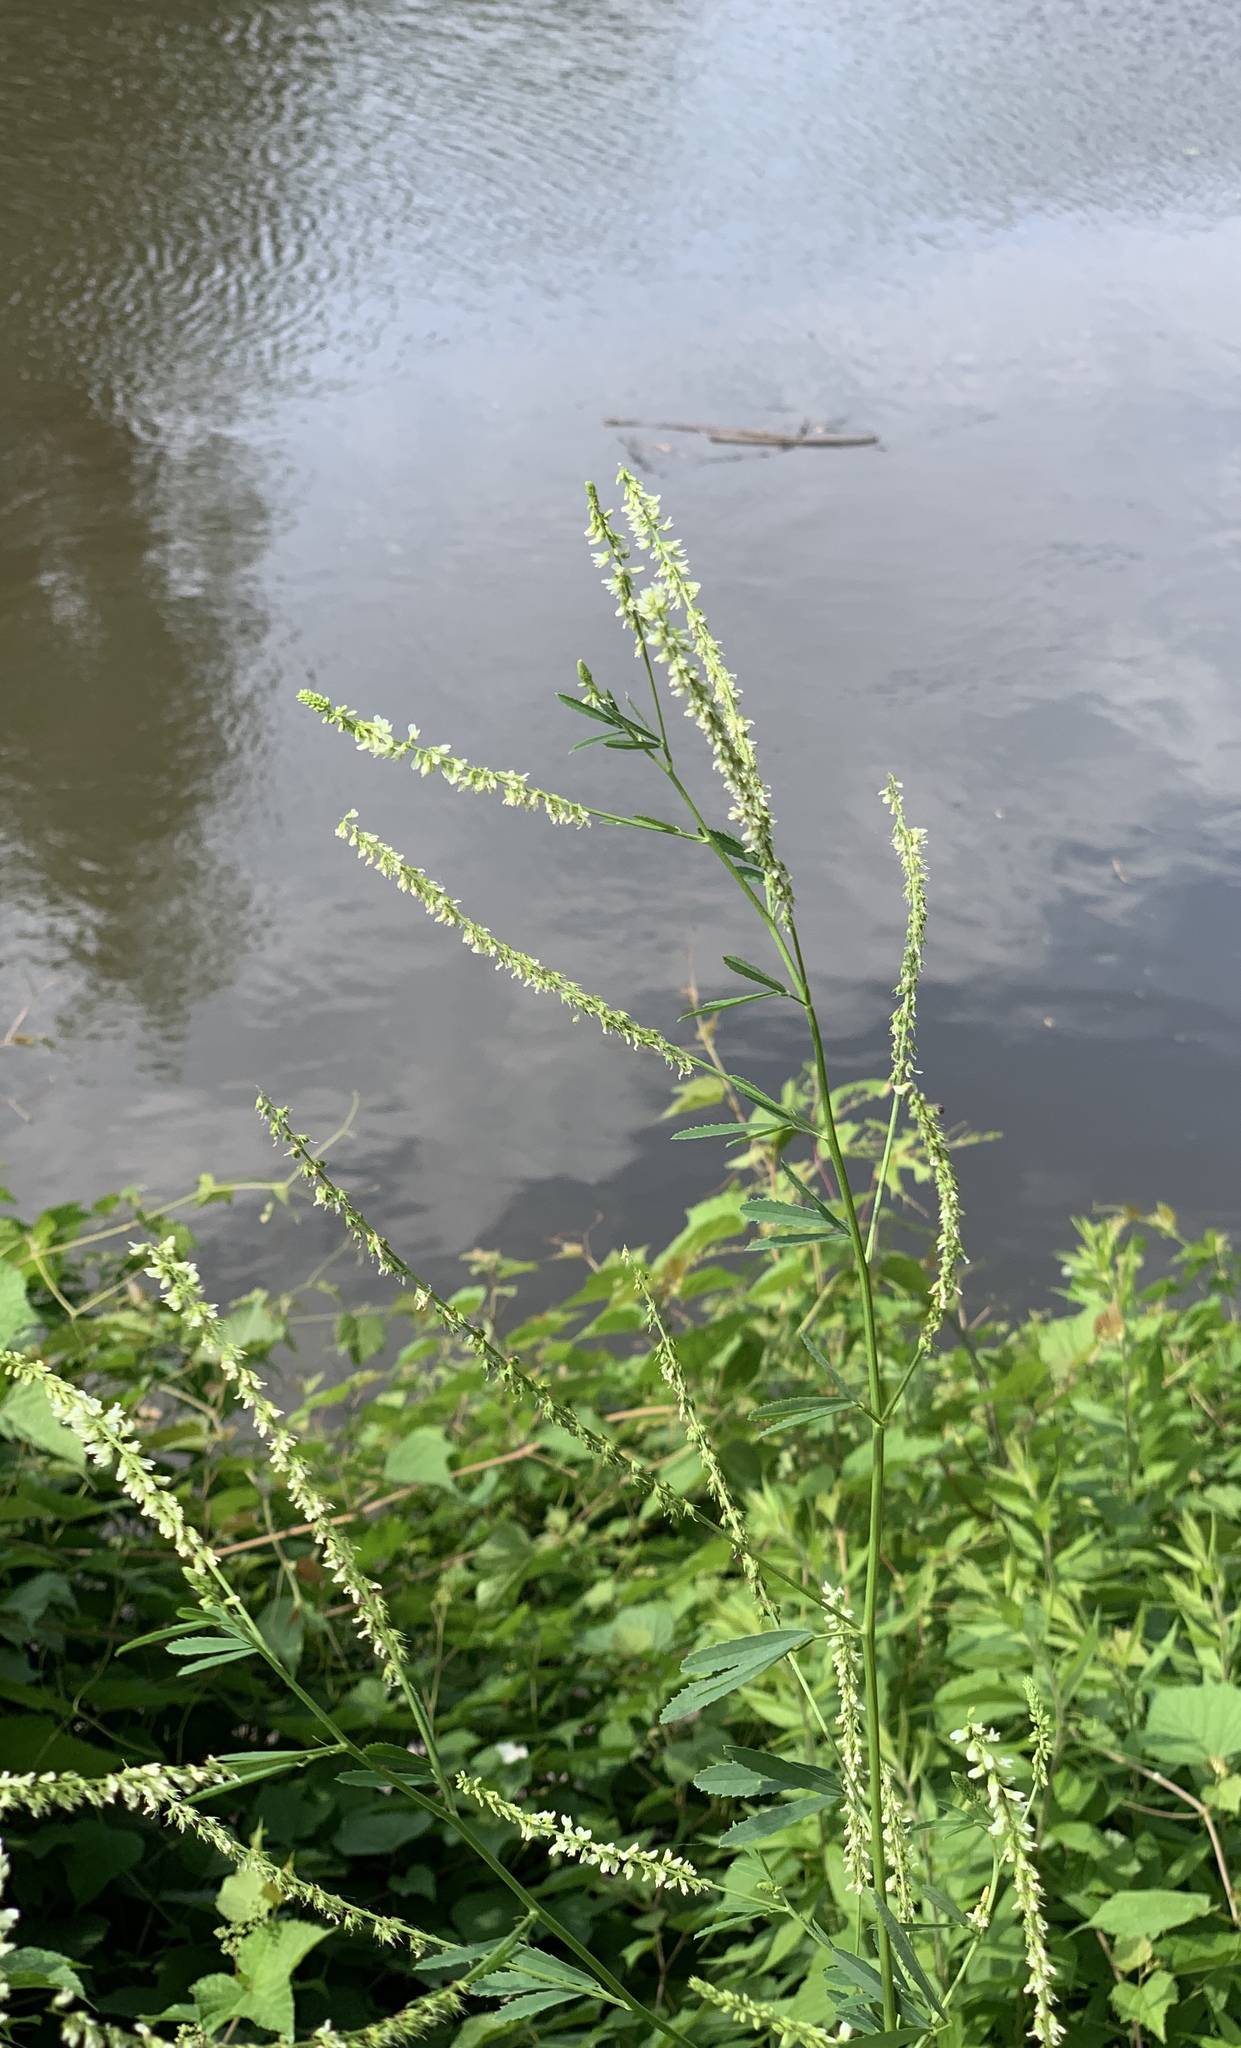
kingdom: Plantae
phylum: Tracheophyta
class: Magnoliopsida
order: Fabales
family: Fabaceae
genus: Melilotus
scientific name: Melilotus albus
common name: White melilot
